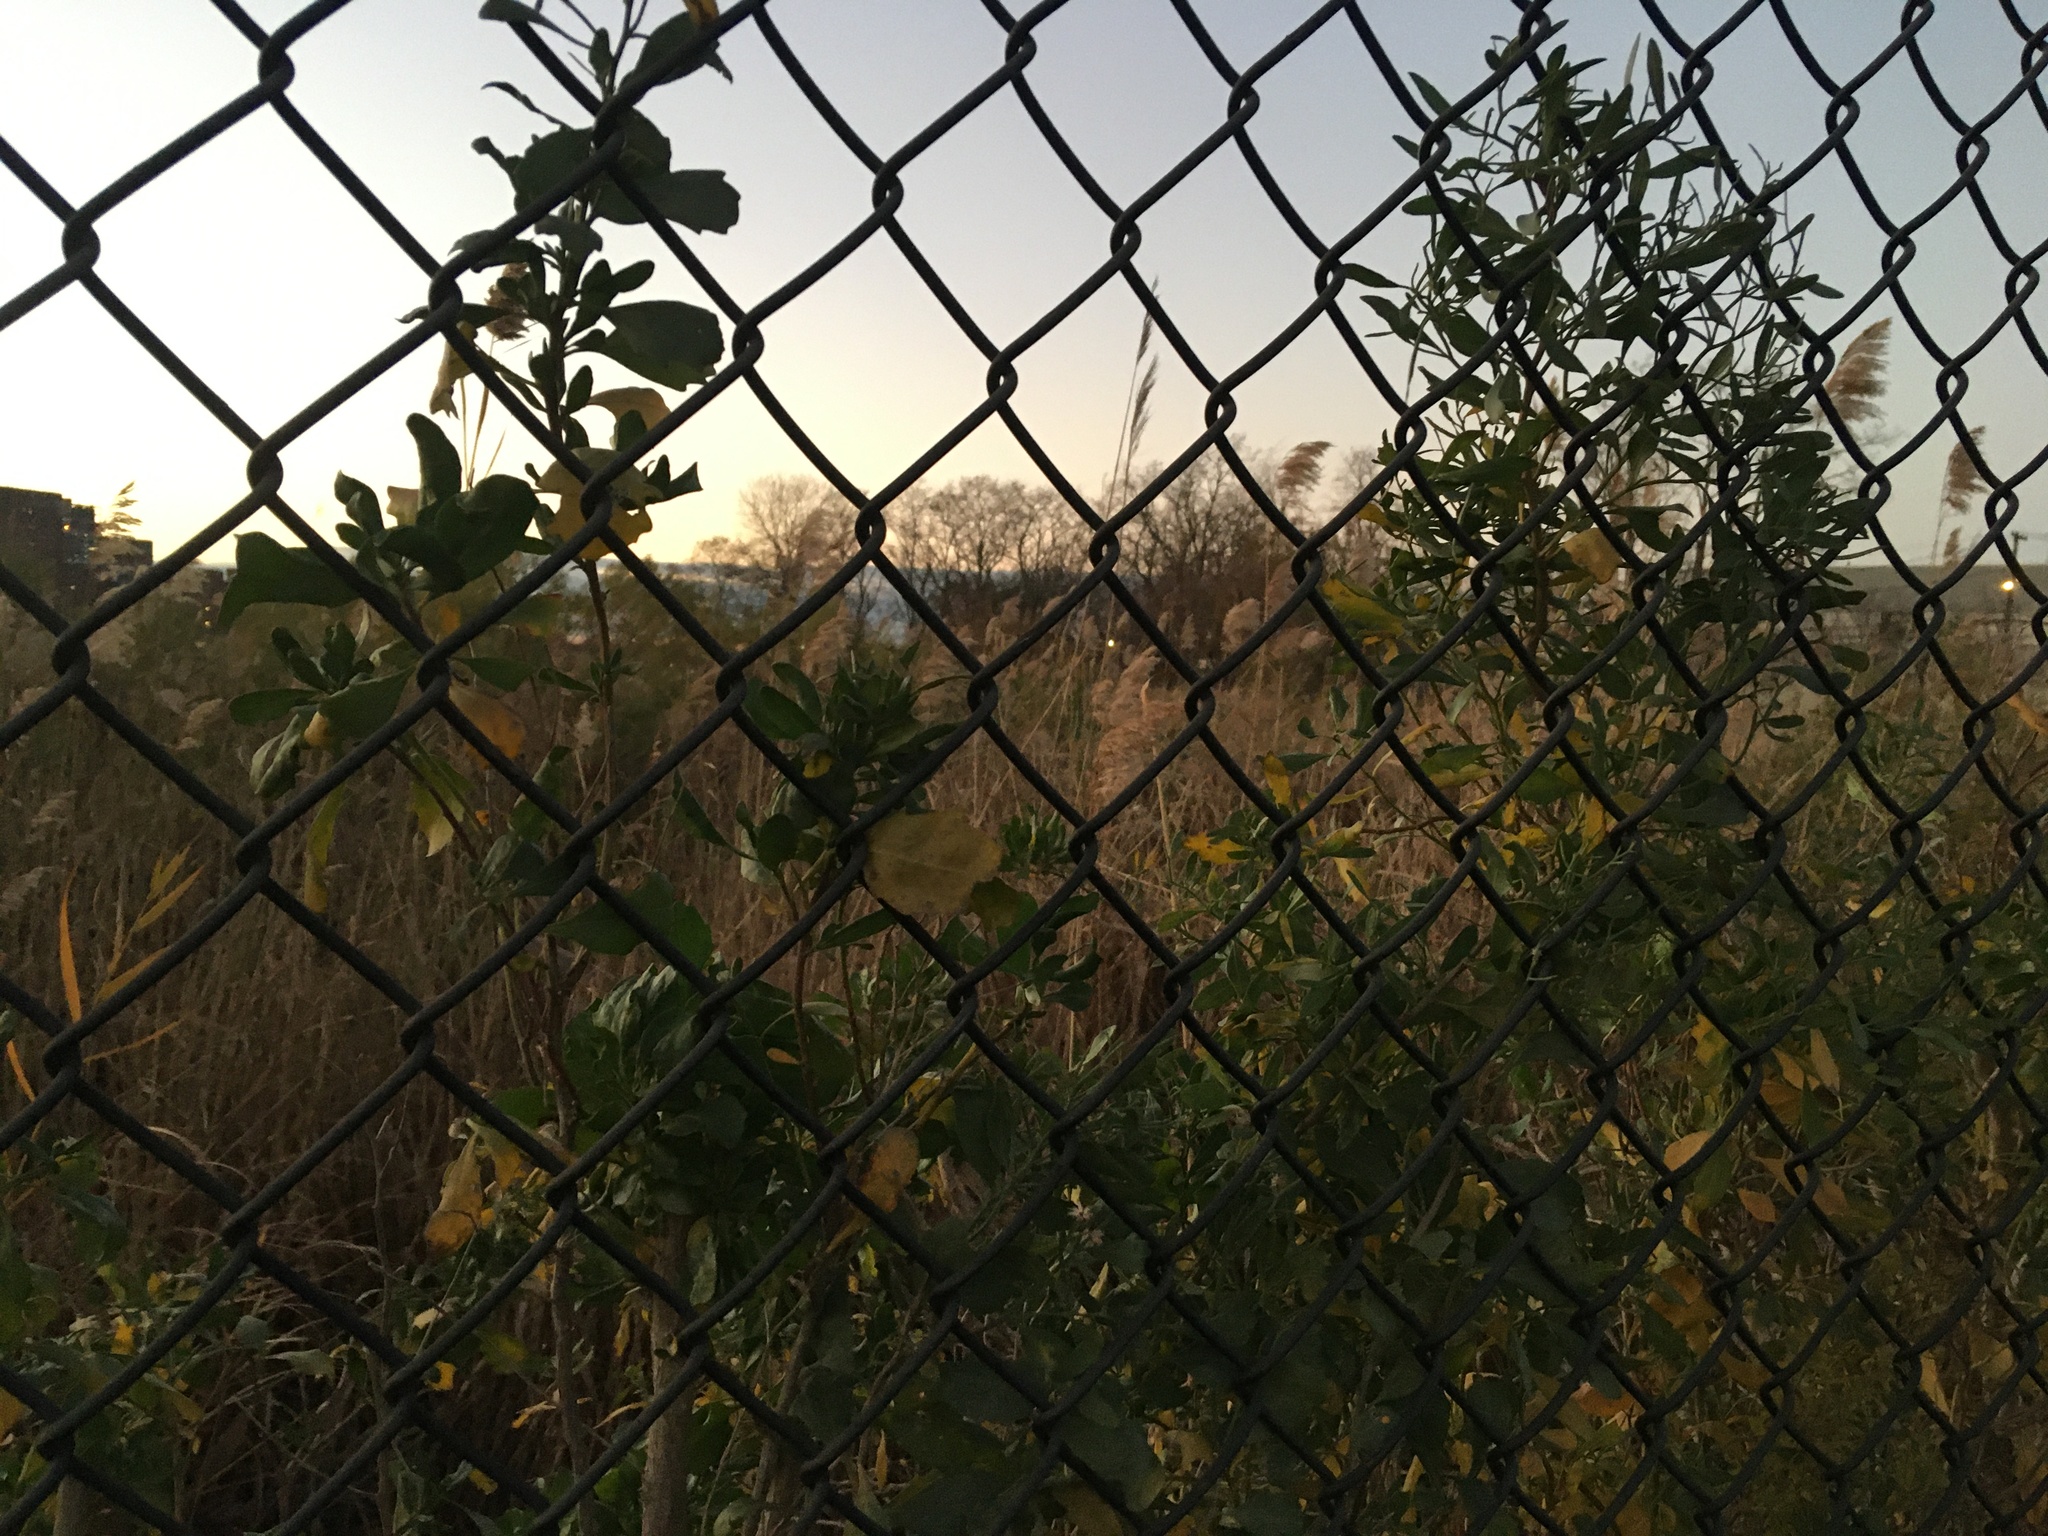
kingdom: Plantae
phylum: Tracheophyta
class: Magnoliopsida
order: Asterales
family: Asteraceae
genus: Baccharis
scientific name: Baccharis halimifolia
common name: Eastern baccharis
